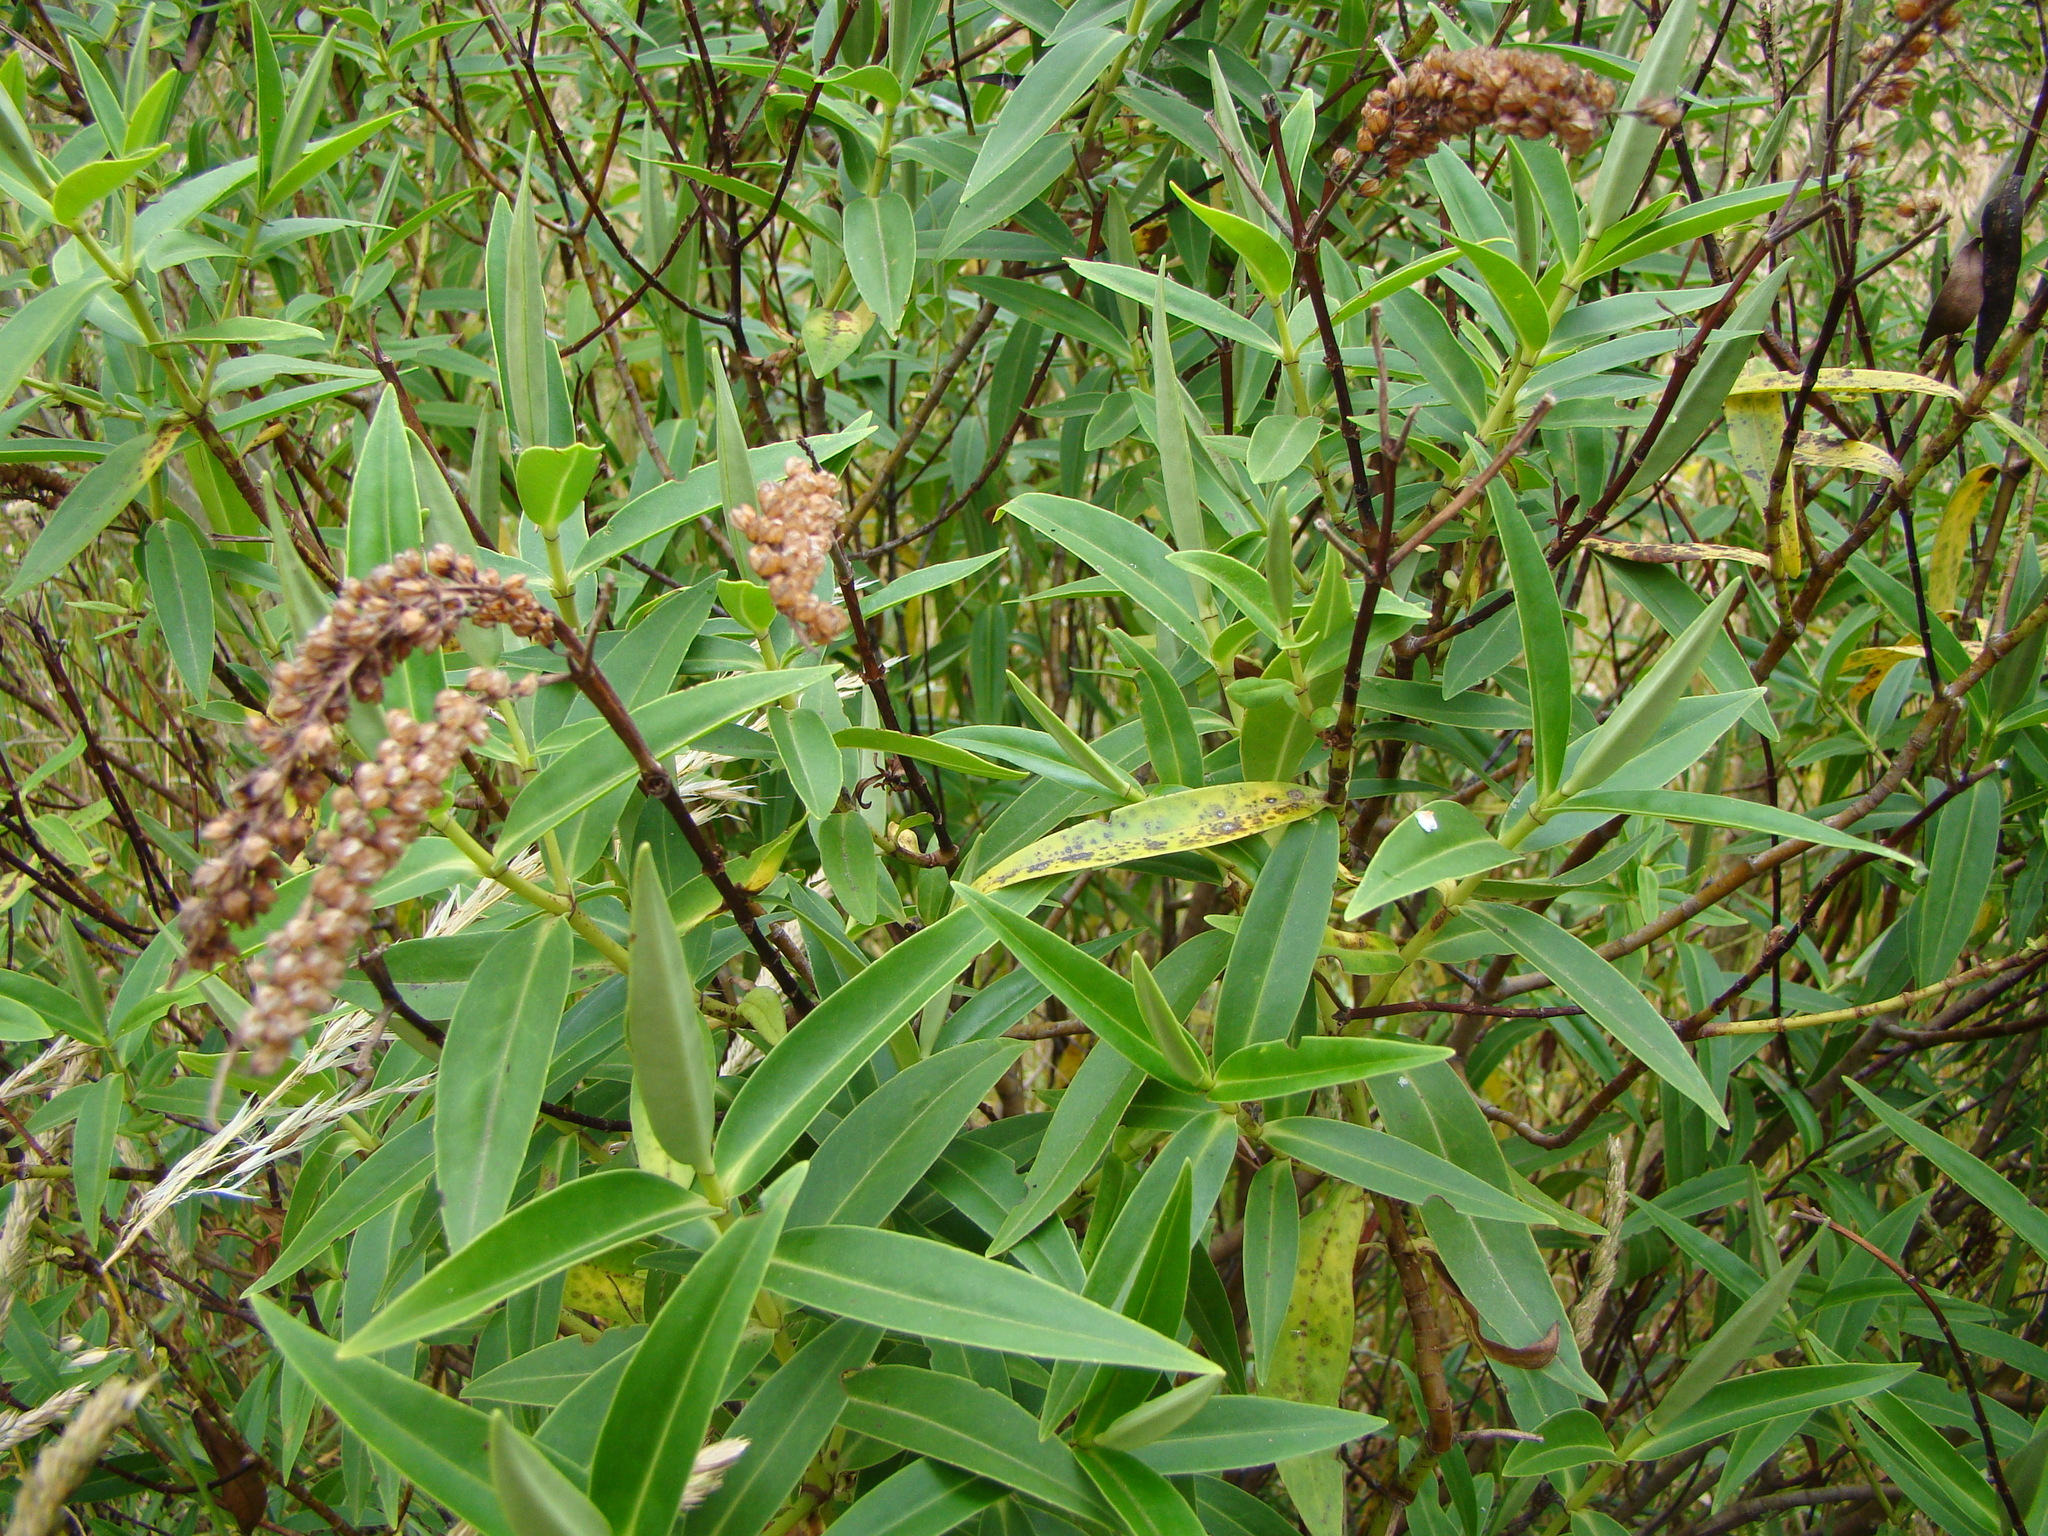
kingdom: Plantae
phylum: Tracheophyta
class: Magnoliopsida
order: Lamiales
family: Plantaginaceae
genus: Veronica
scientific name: Veronica stricta
